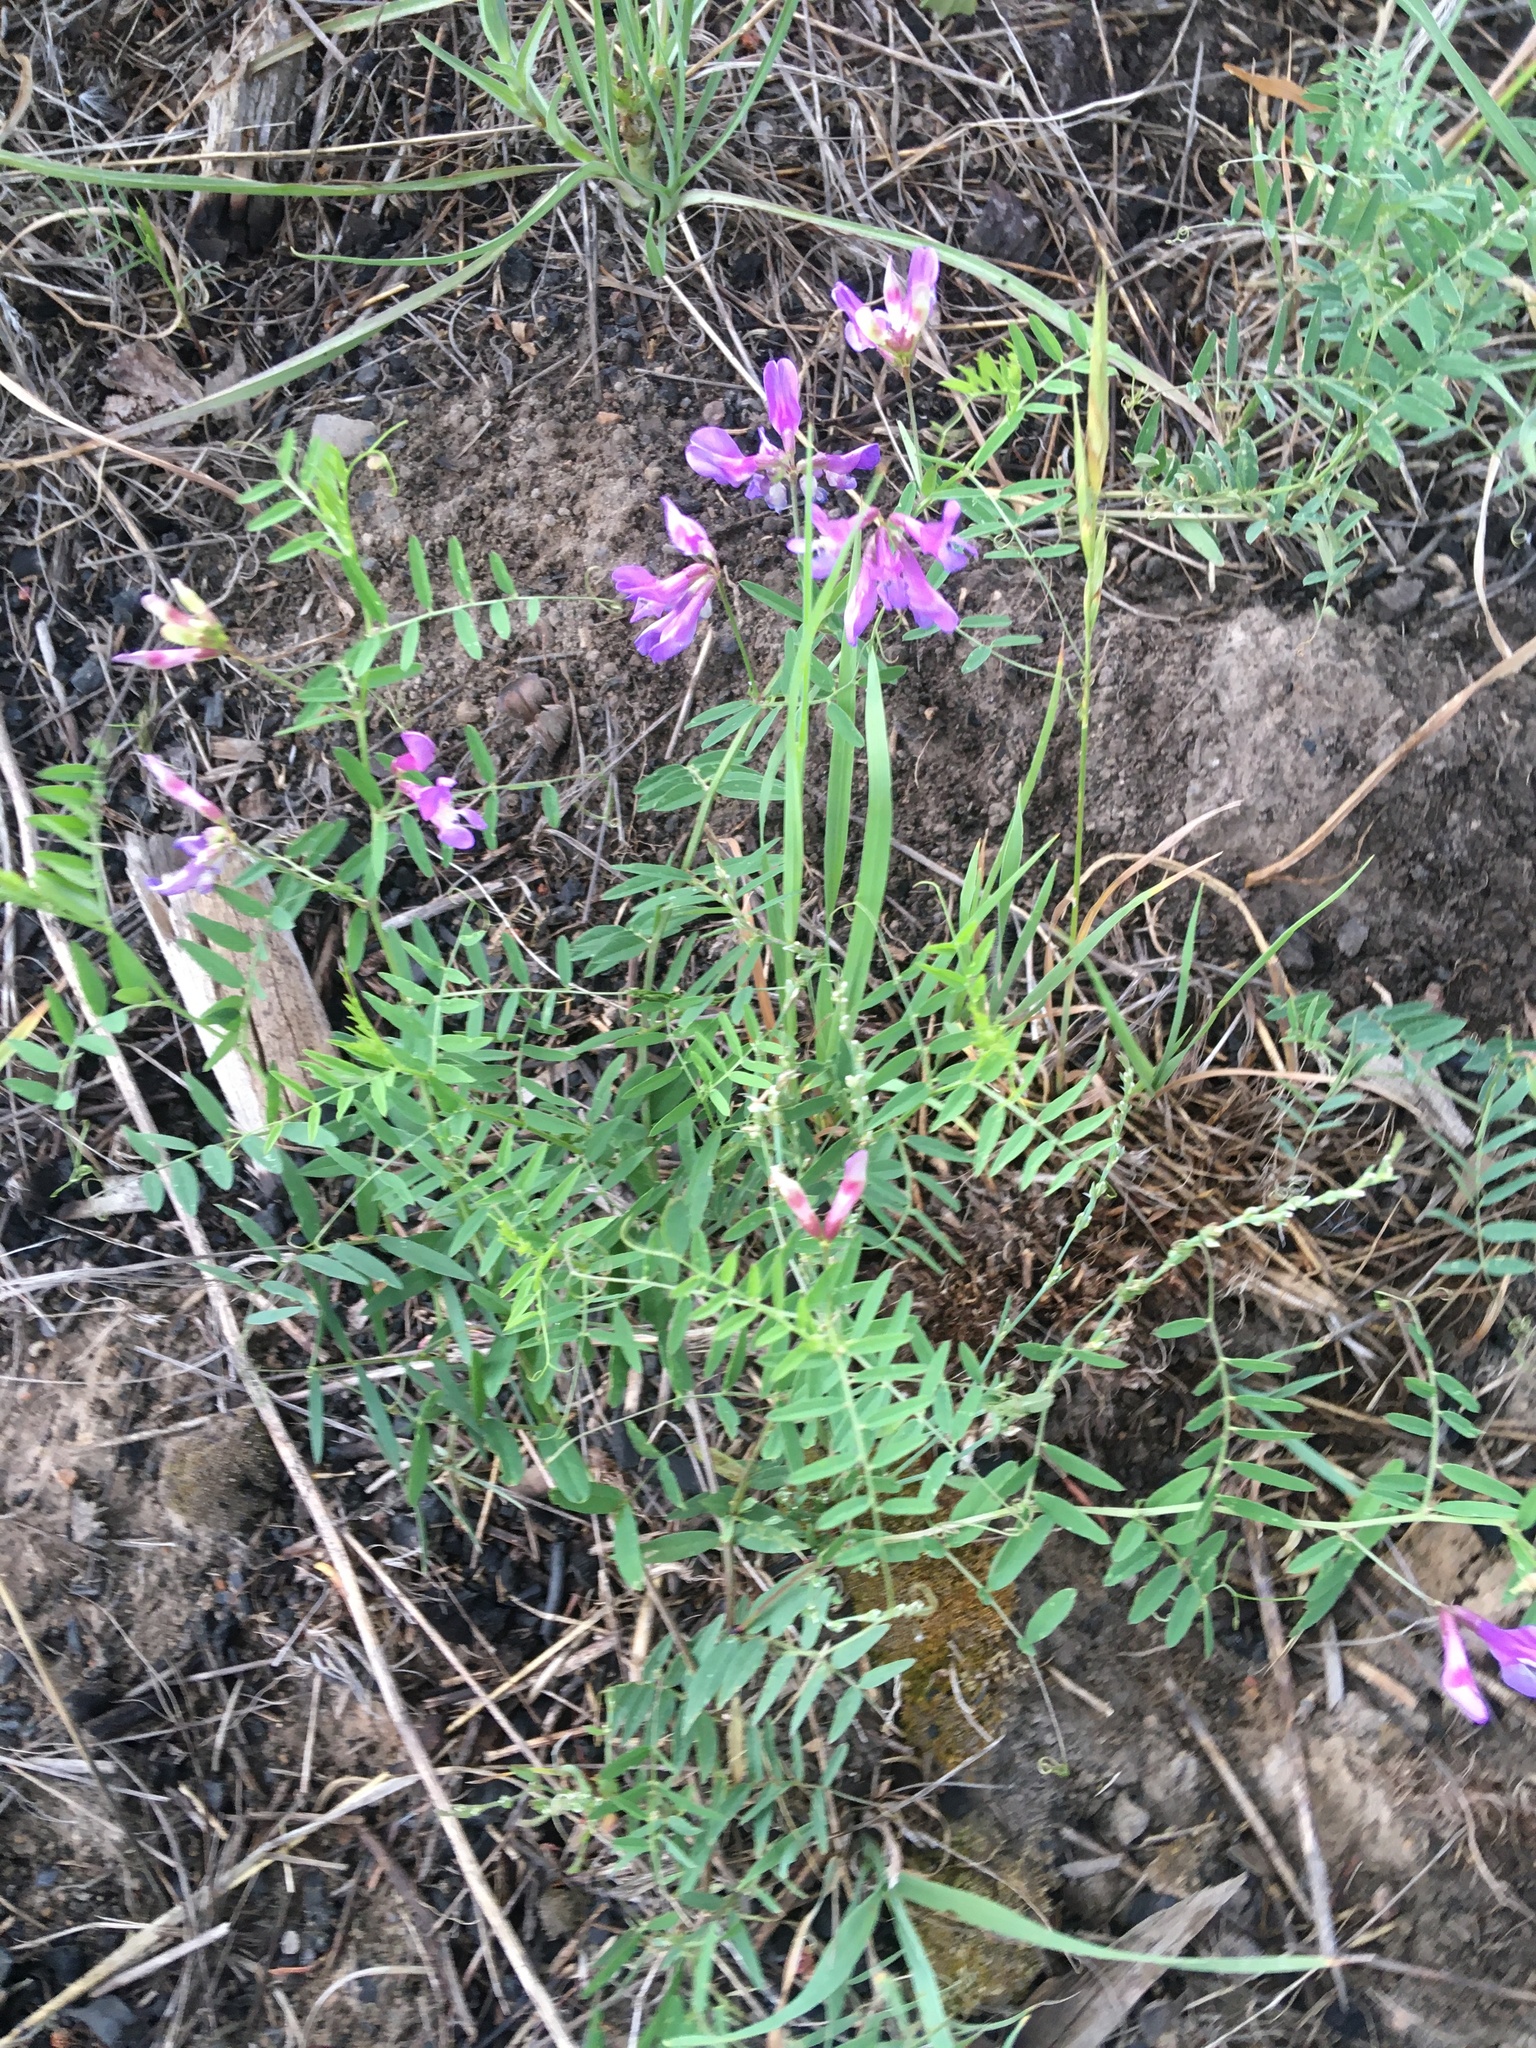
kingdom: Plantae
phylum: Tracheophyta
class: Magnoliopsida
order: Fabales
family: Fabaceae
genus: Vicia
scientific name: Vicia americana
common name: American vetch
